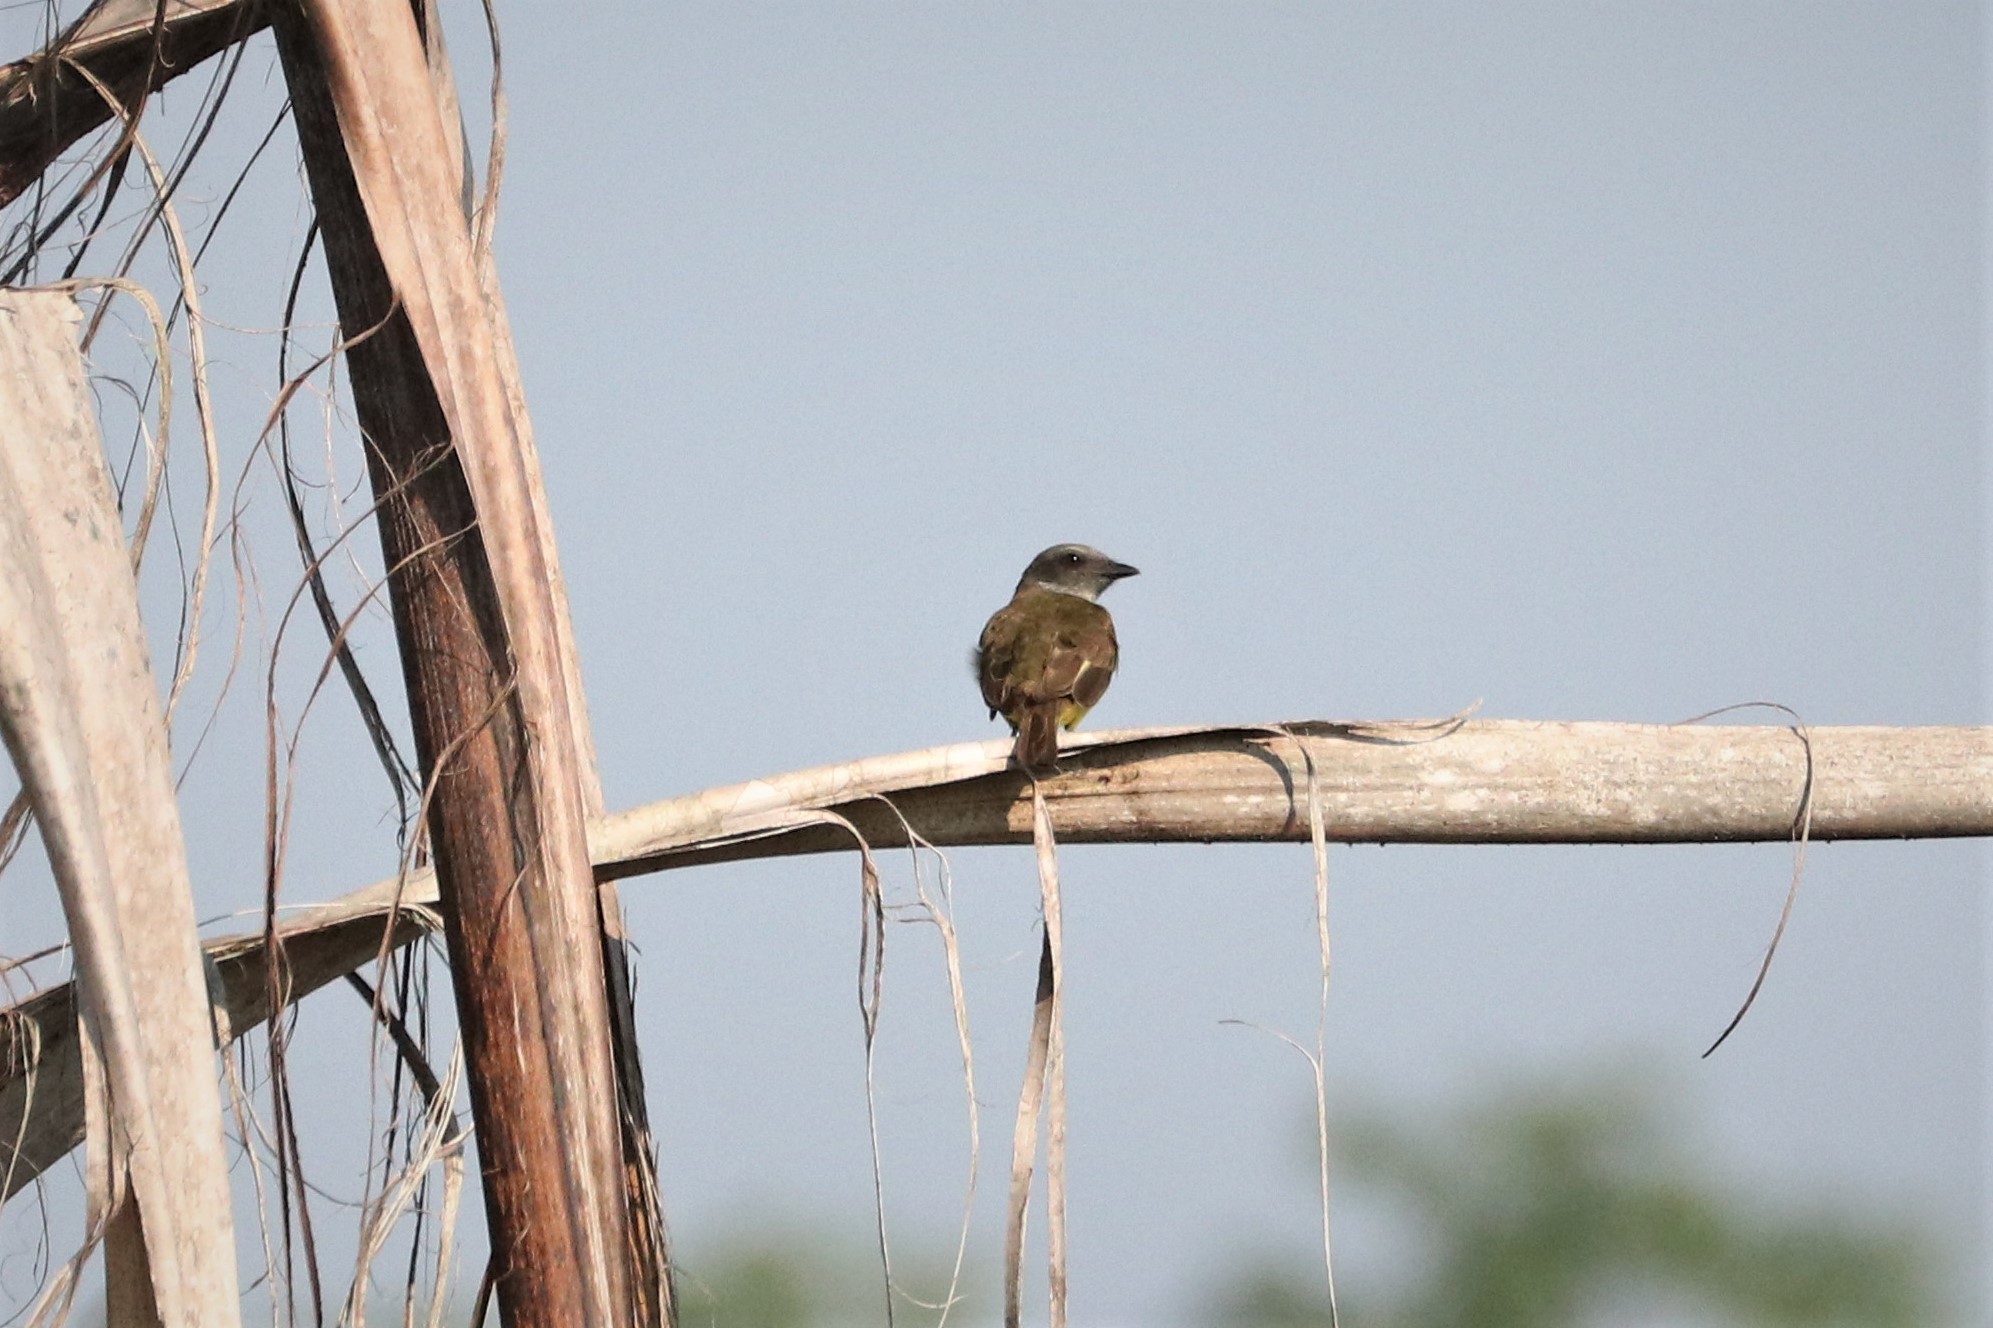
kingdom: Animalia
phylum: Chordata
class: Aves
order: Passeriformes
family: Tyrannidae
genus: Tyrannopsis
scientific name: Tyrannopsis sulphurea
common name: Sulphury flycatcher
